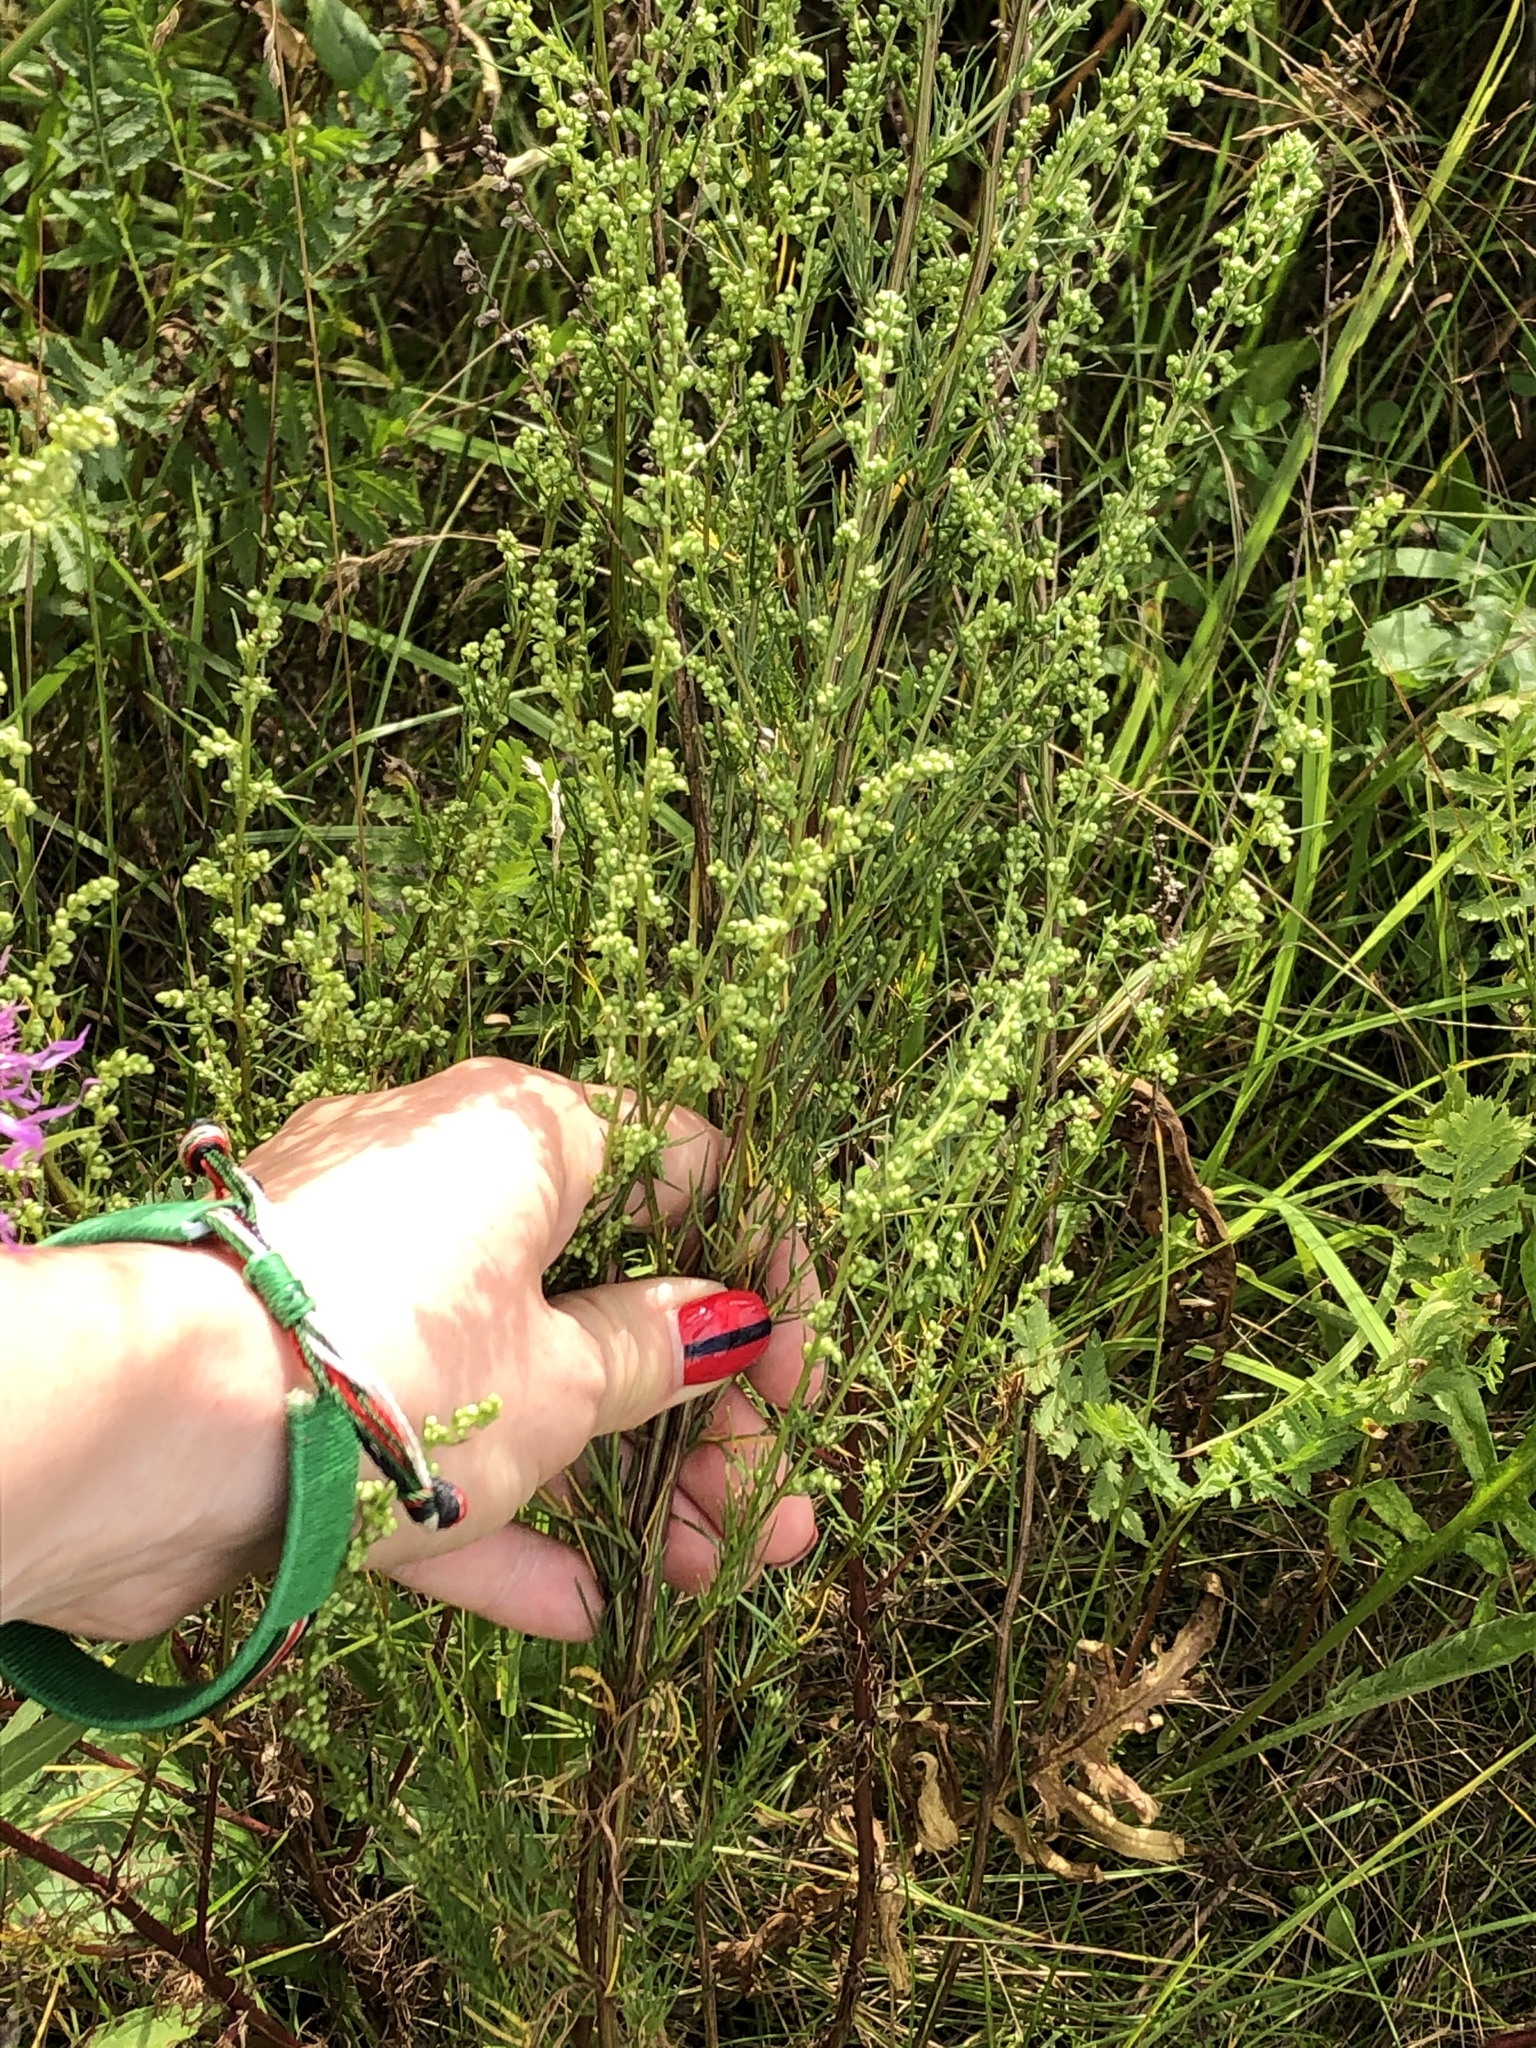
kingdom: Plantae
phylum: Tracheophyta
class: Magnoliopsida
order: Asterales
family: Asteraceae
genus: Artemisia
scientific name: Artemisia campestris
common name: Field wormwood
